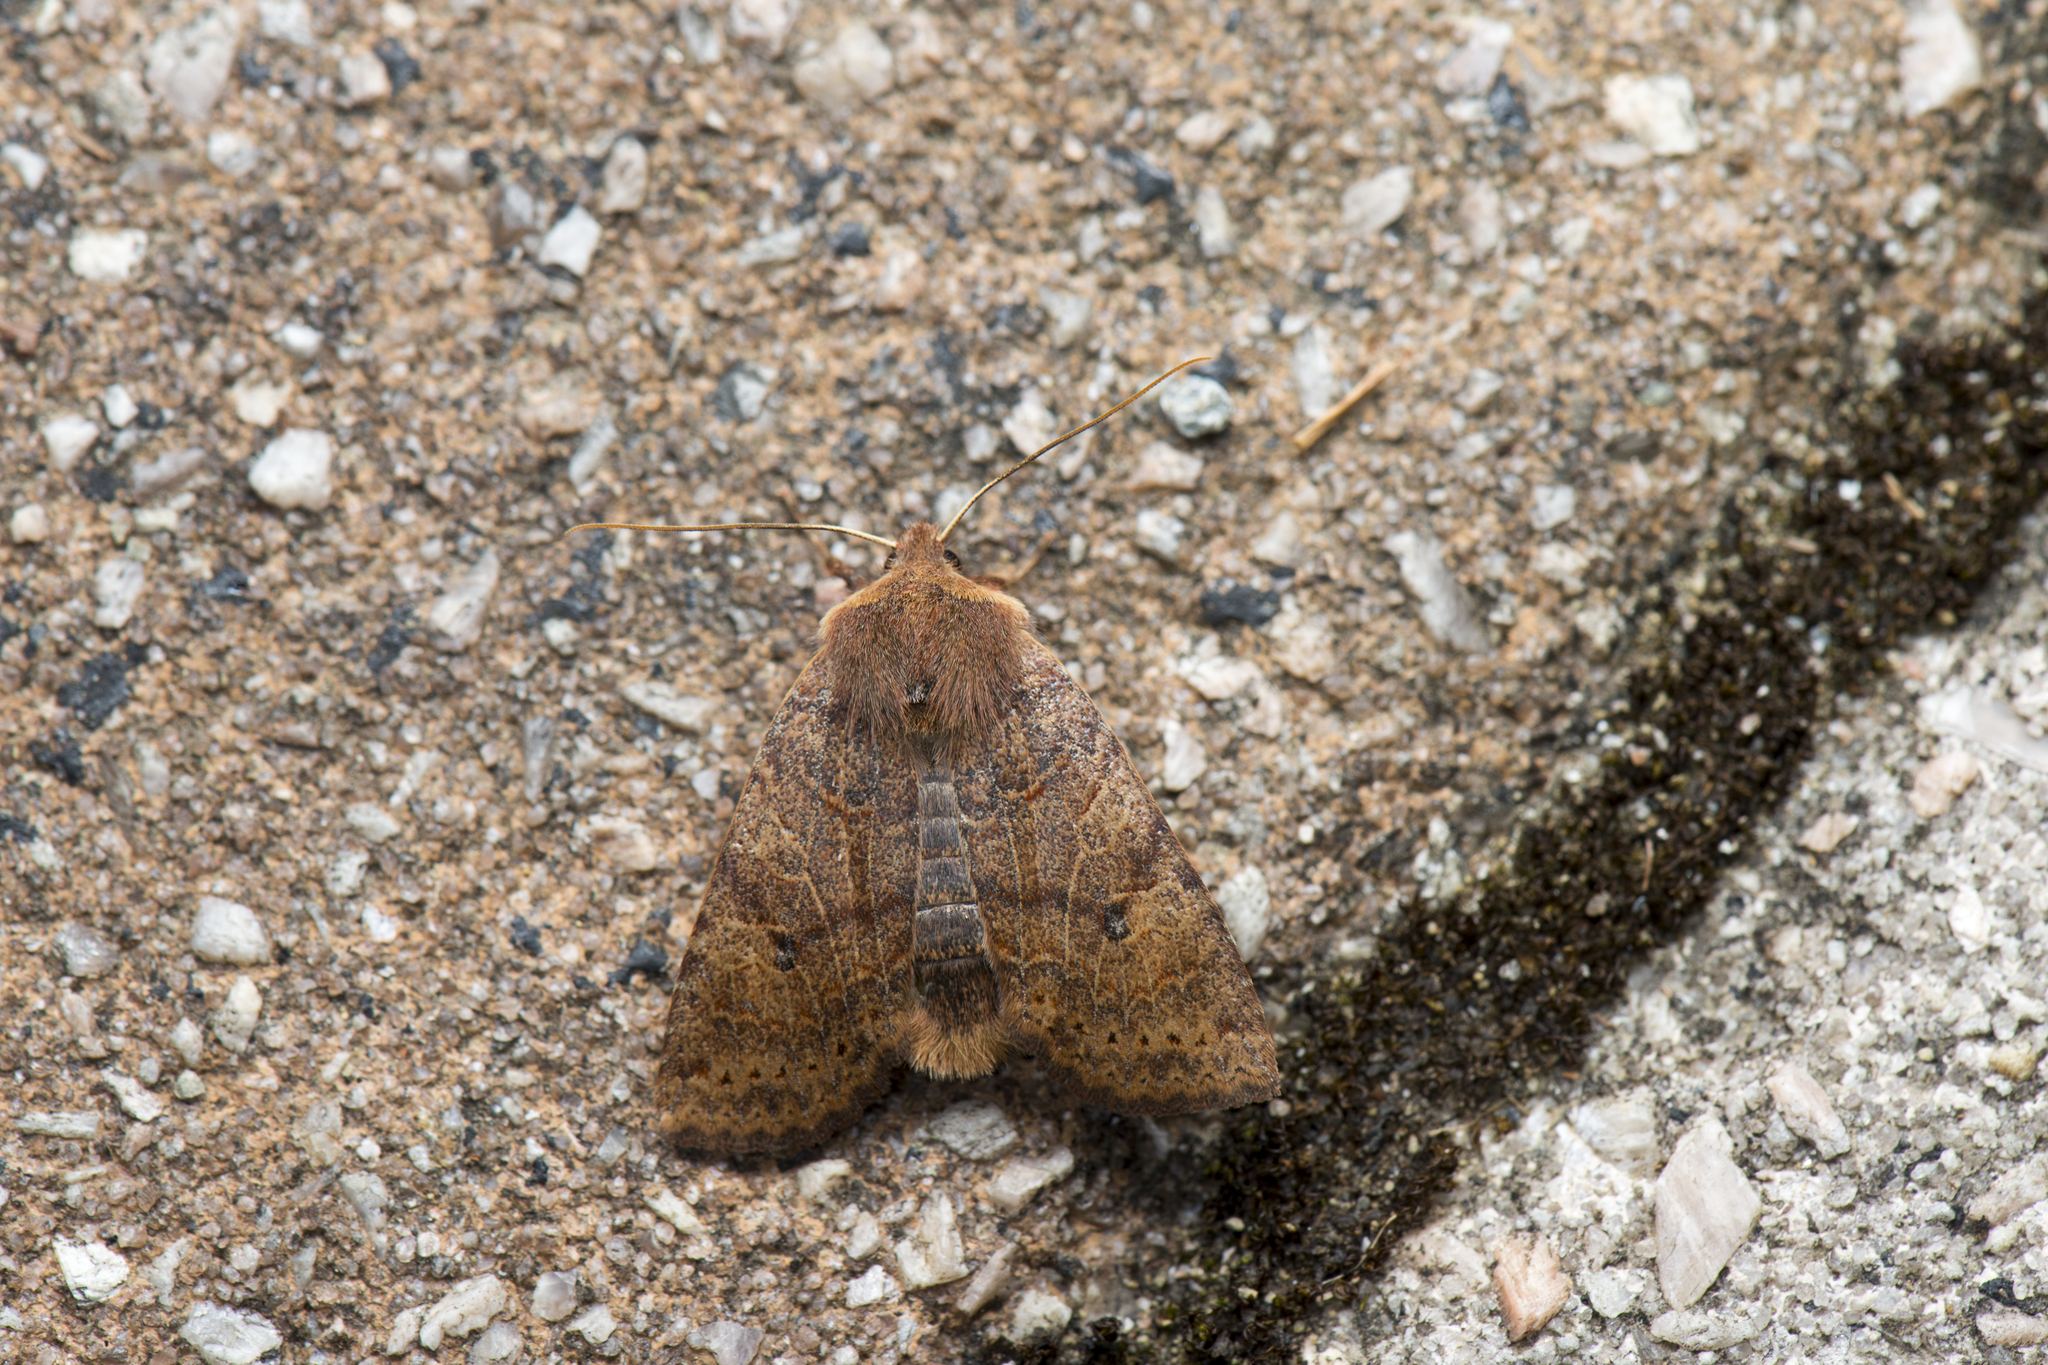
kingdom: Animalia
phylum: Arthropoda
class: Insecta
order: Lepidoptera
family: Noctuidae
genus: Conistra
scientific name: Conistra takasago
